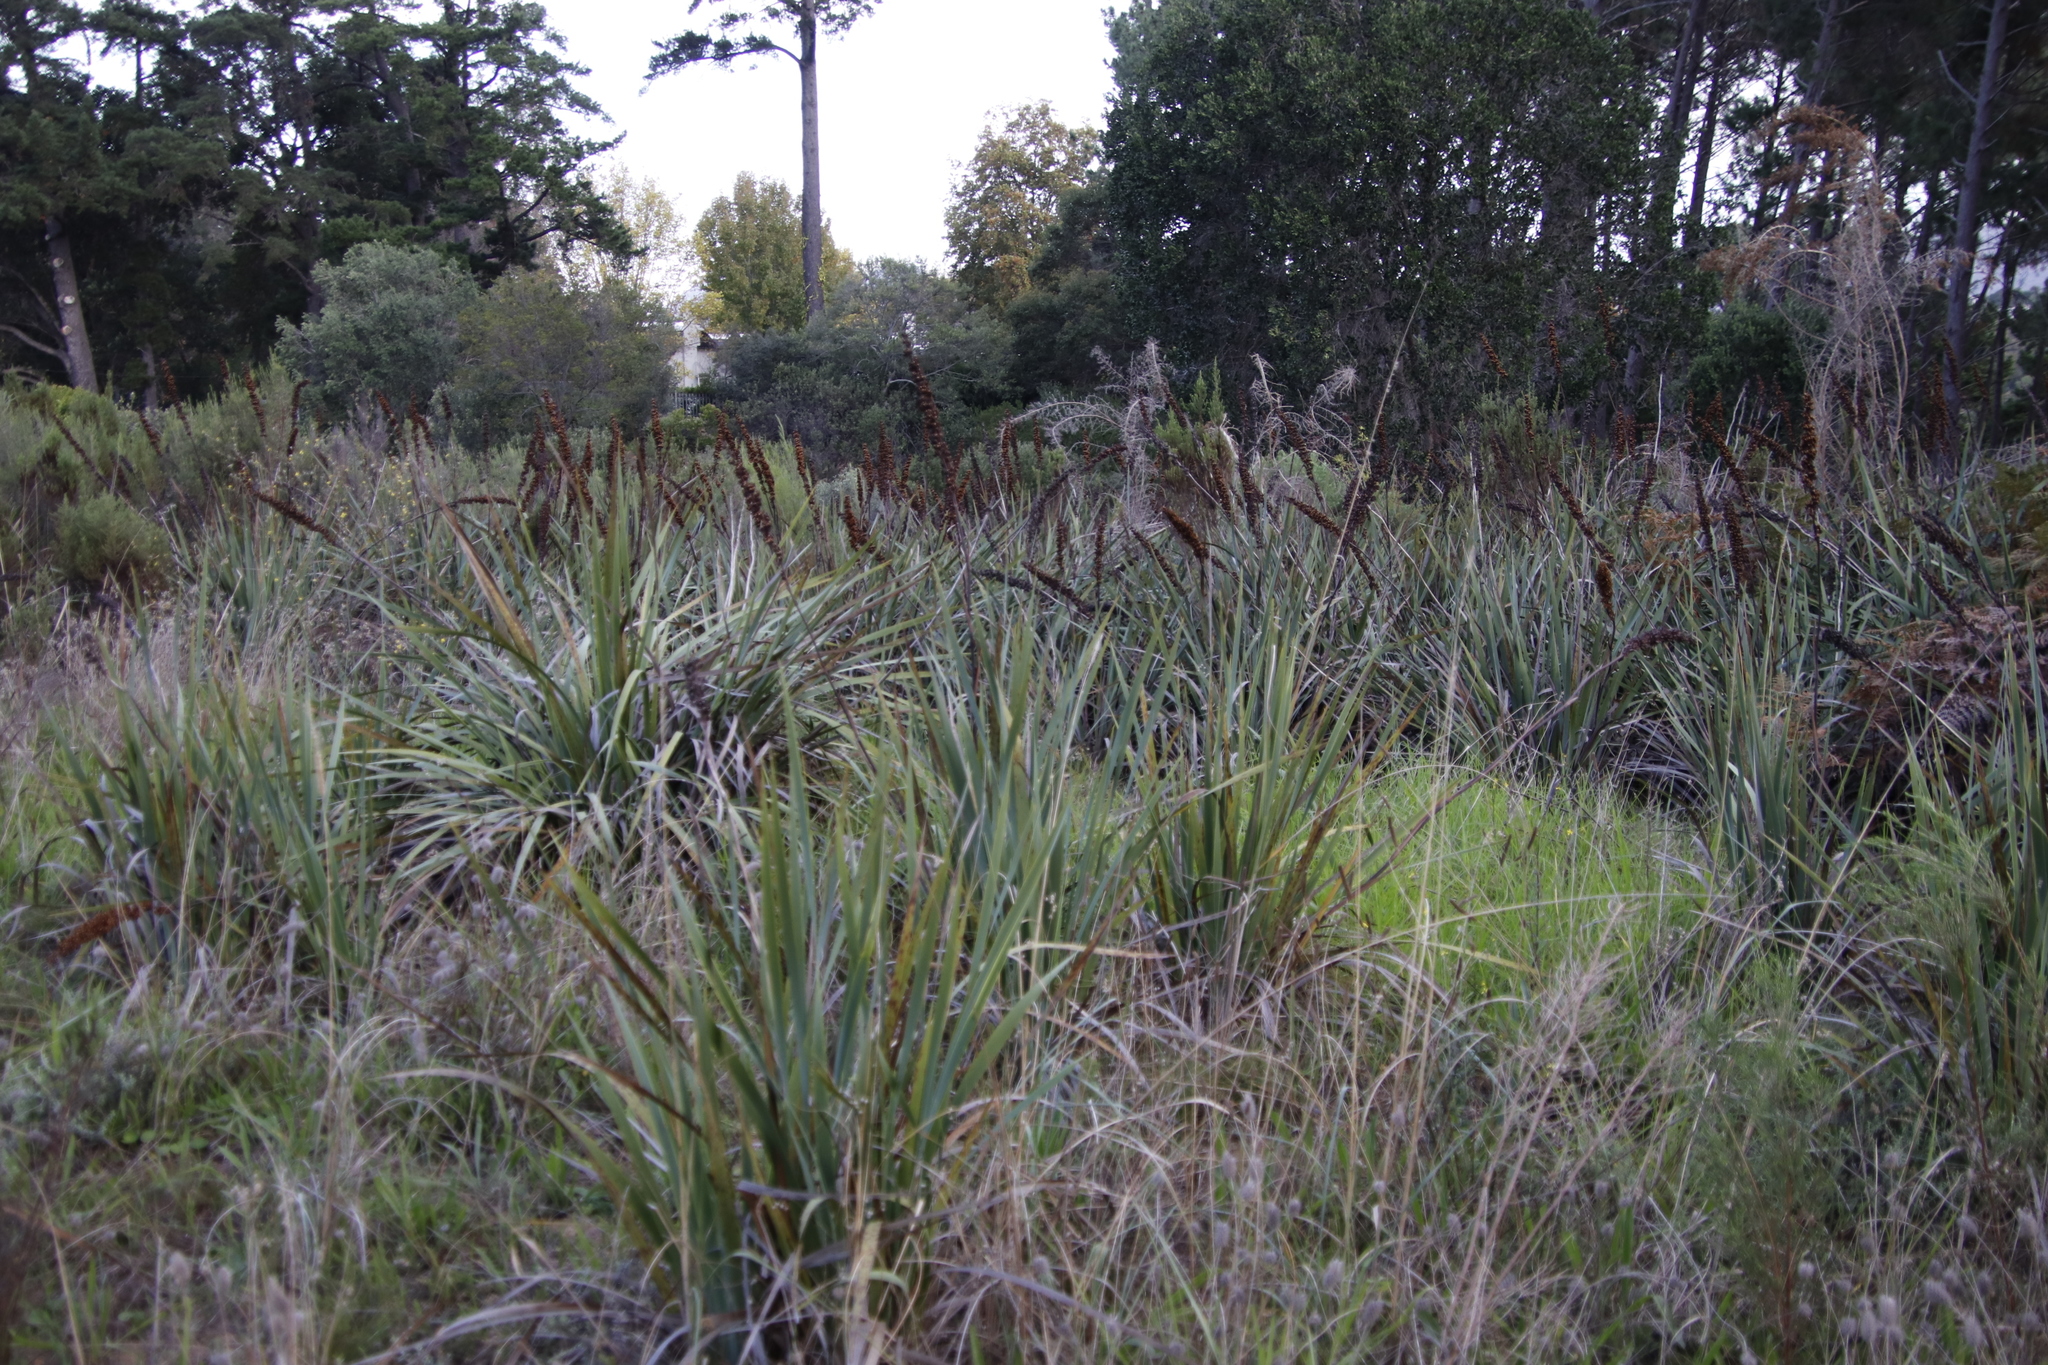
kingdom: Plantae
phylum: Tracheophyta
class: Liliopsida
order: Asparagales
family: Iridaceae
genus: Aristea
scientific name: Aristea capitata
